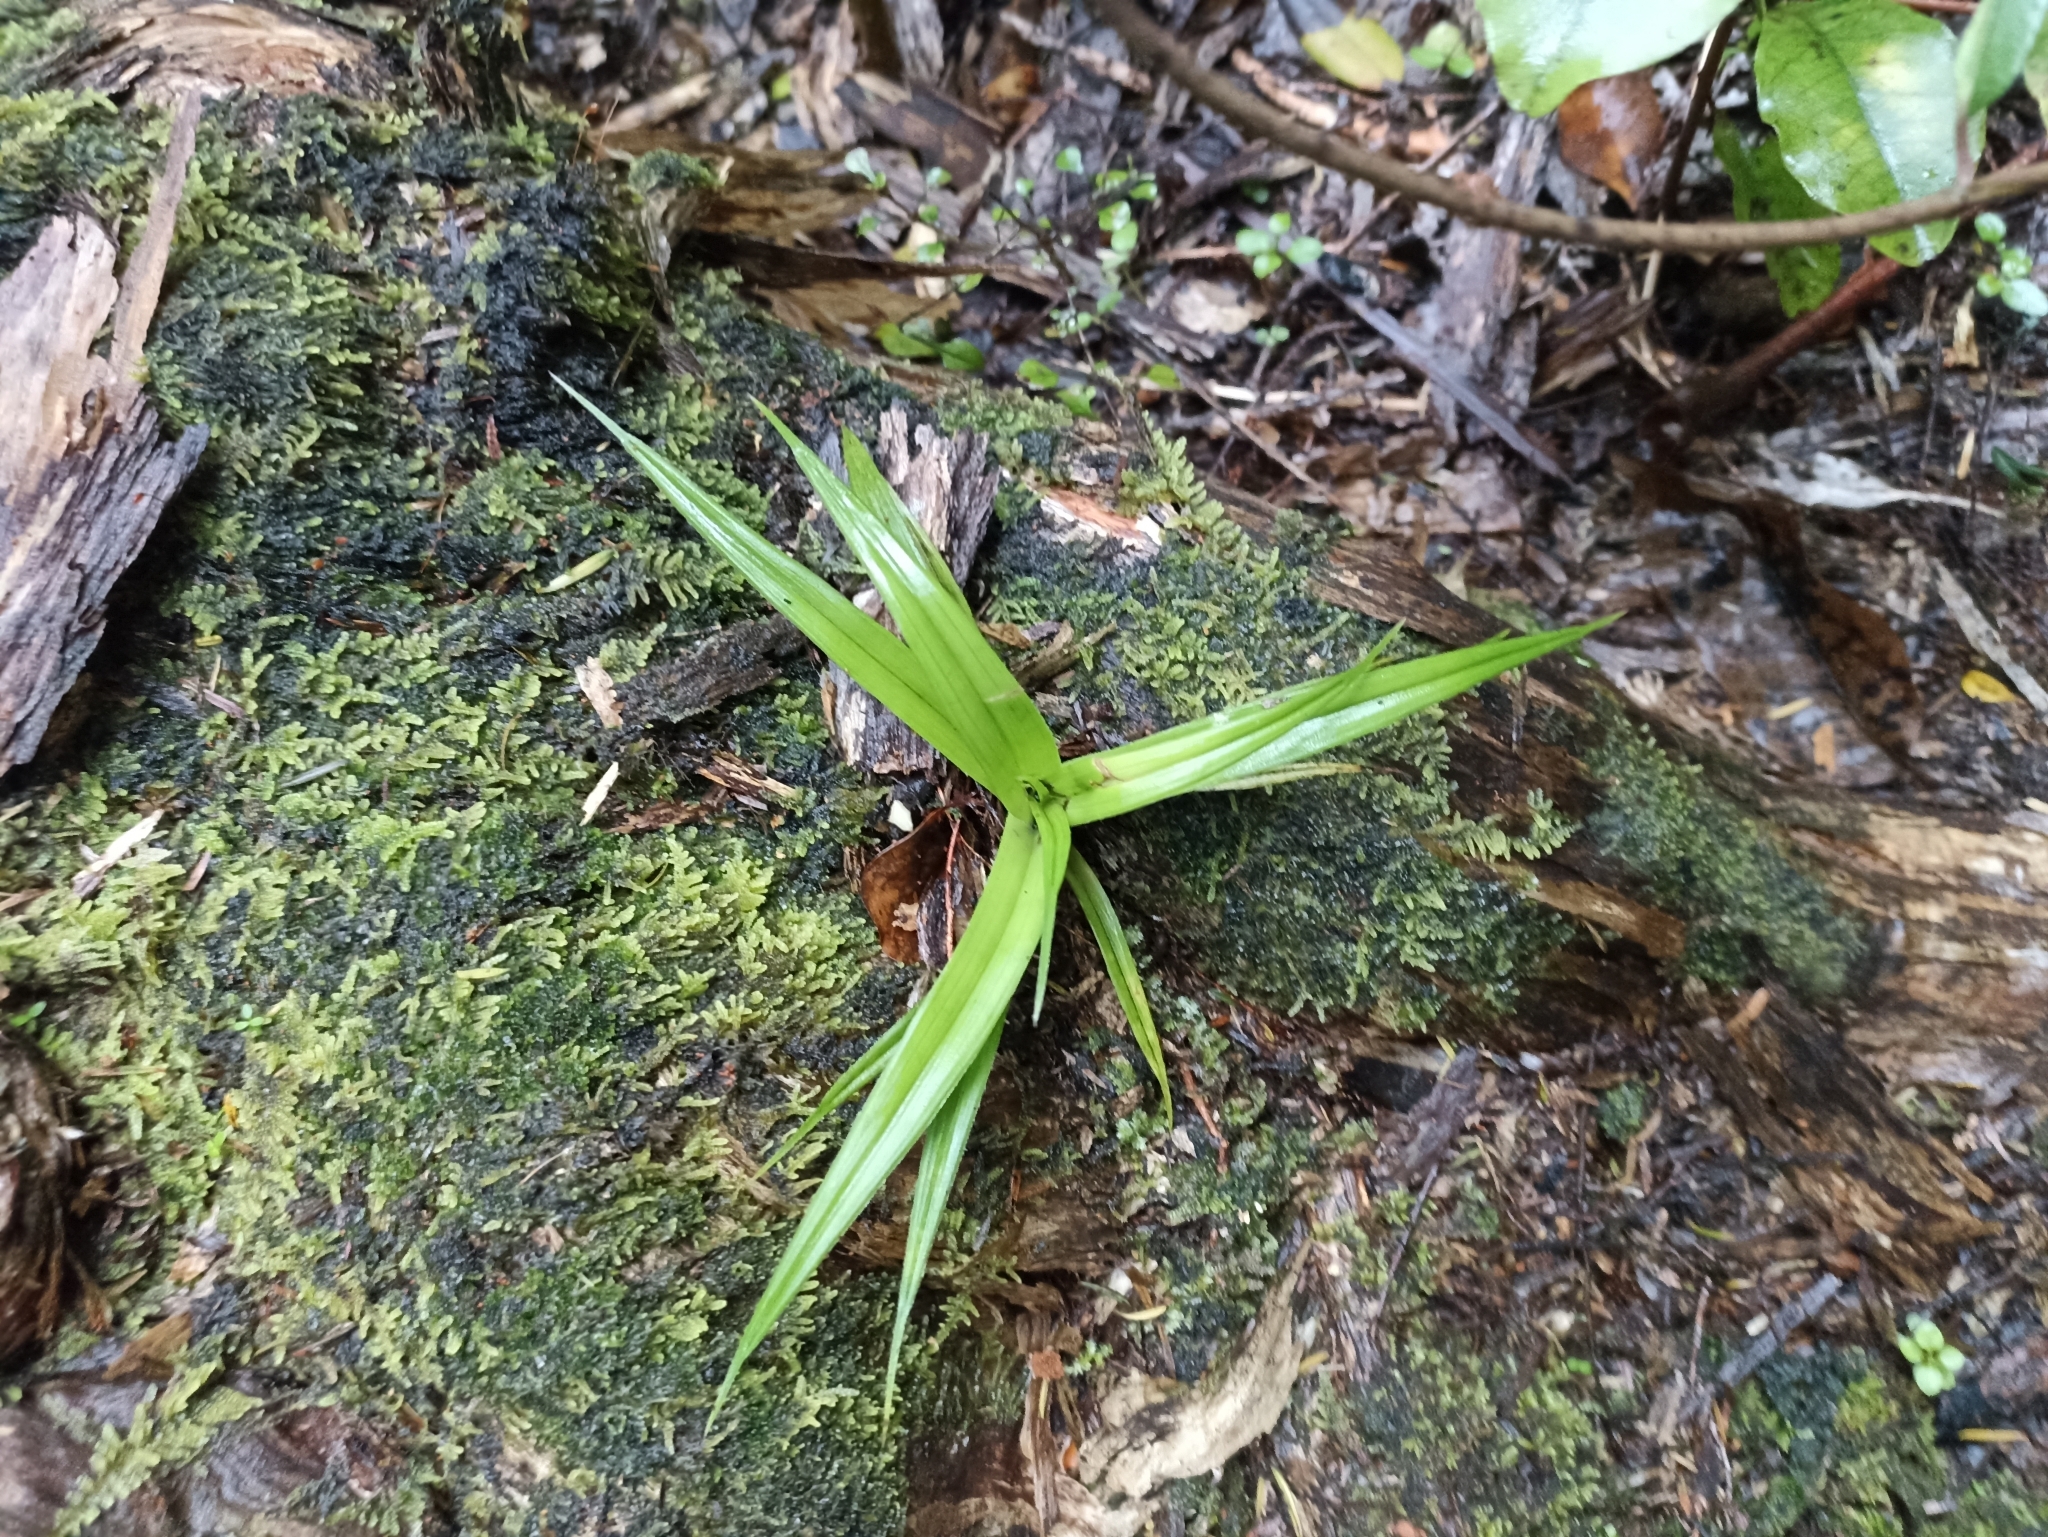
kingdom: Plantae
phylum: Tracheophyta
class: Liliopsida
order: Asparagales
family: Asteliaceae
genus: Astelia
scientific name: Astelia hastata
